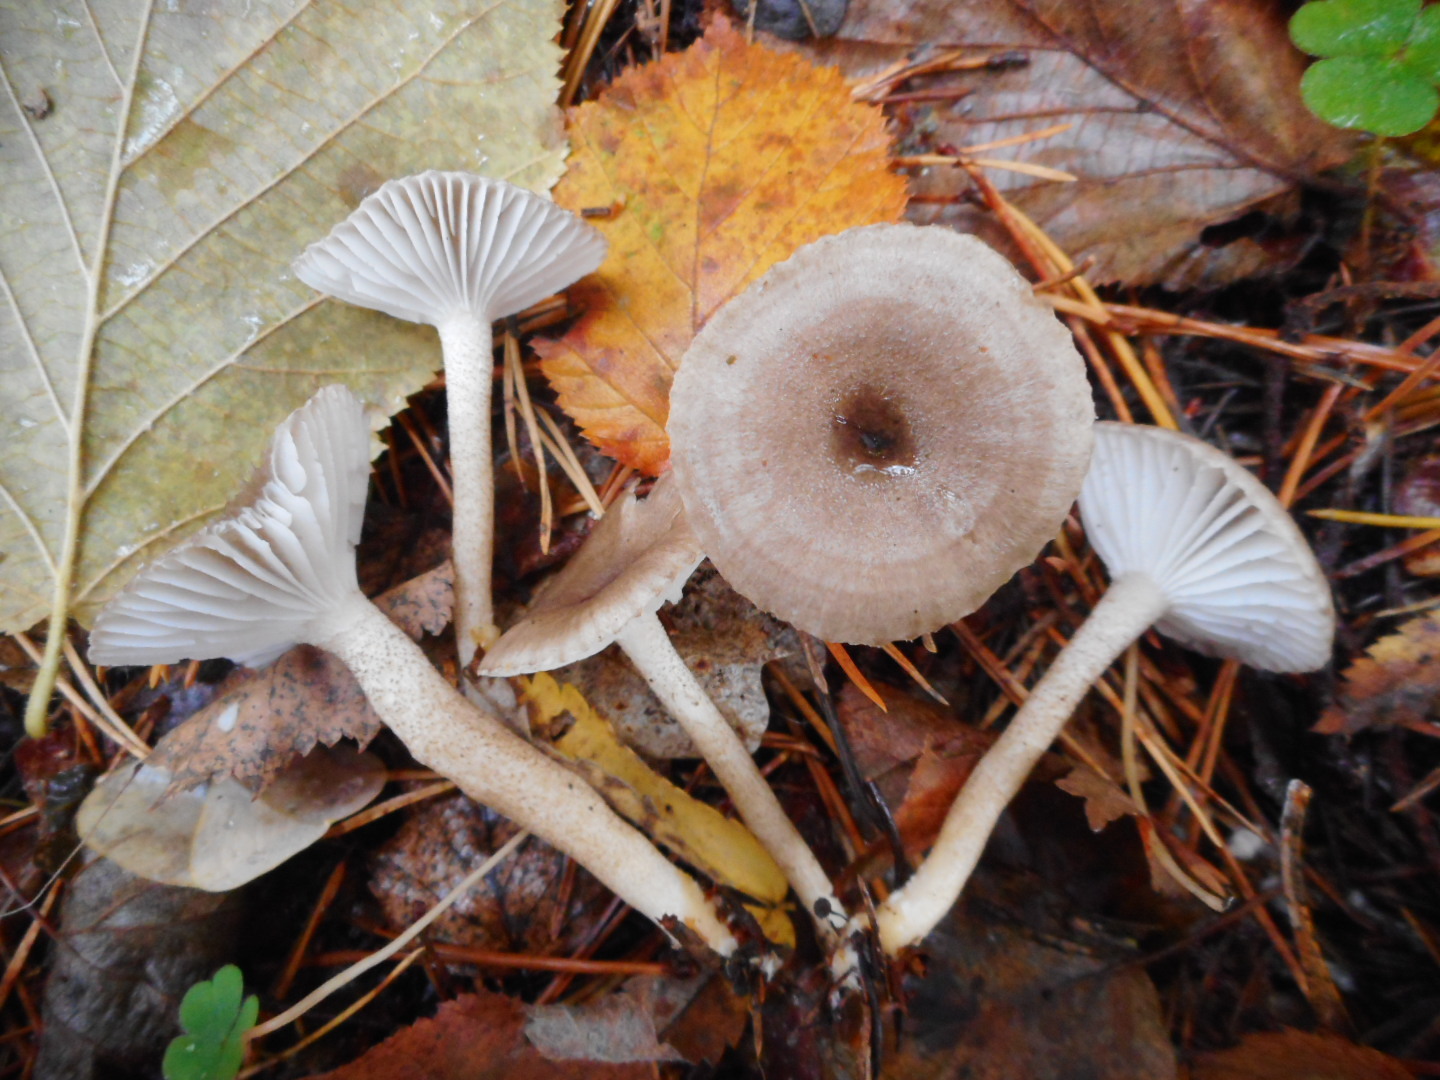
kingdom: Fungi
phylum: Basidiomycota
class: Agaricomycetes
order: Agaricales
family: Hygrophoraceae
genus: Hygrophorus
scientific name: Hygrophorus pustulatus
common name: Blistered woodwax
